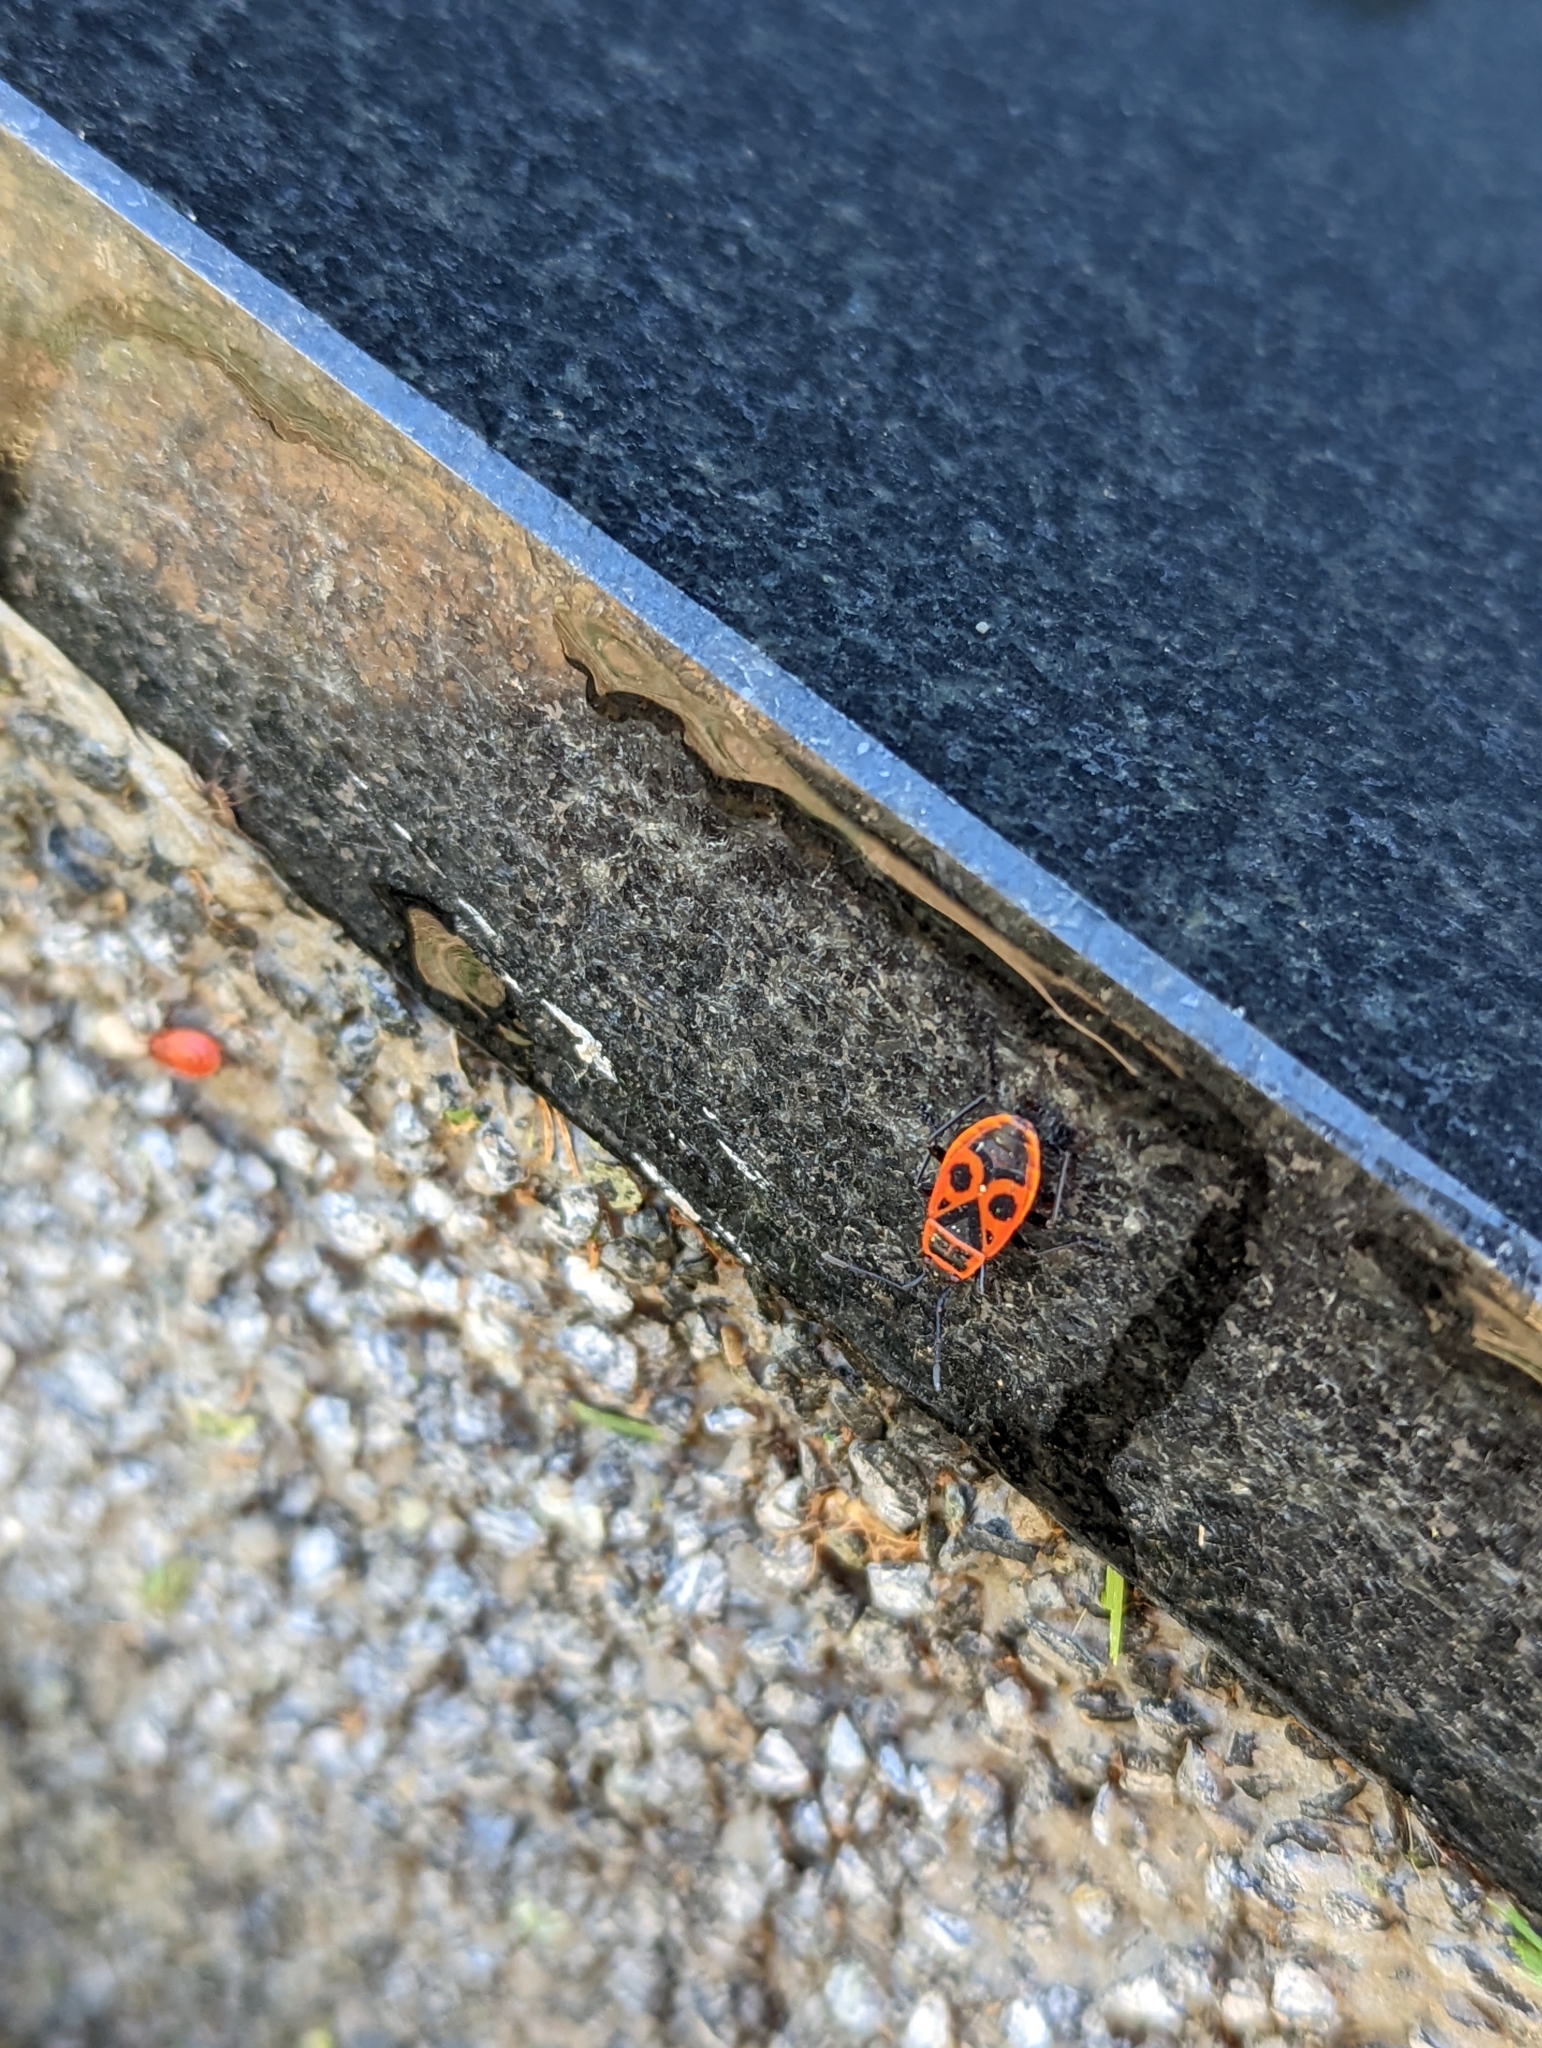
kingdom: Animalia
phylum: Arthropoda
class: Insecta
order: Hemiptera
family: Pyrrhocoridae
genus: Pyrrhocoris
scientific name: Pyrrhocoris apterus
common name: Firebug
